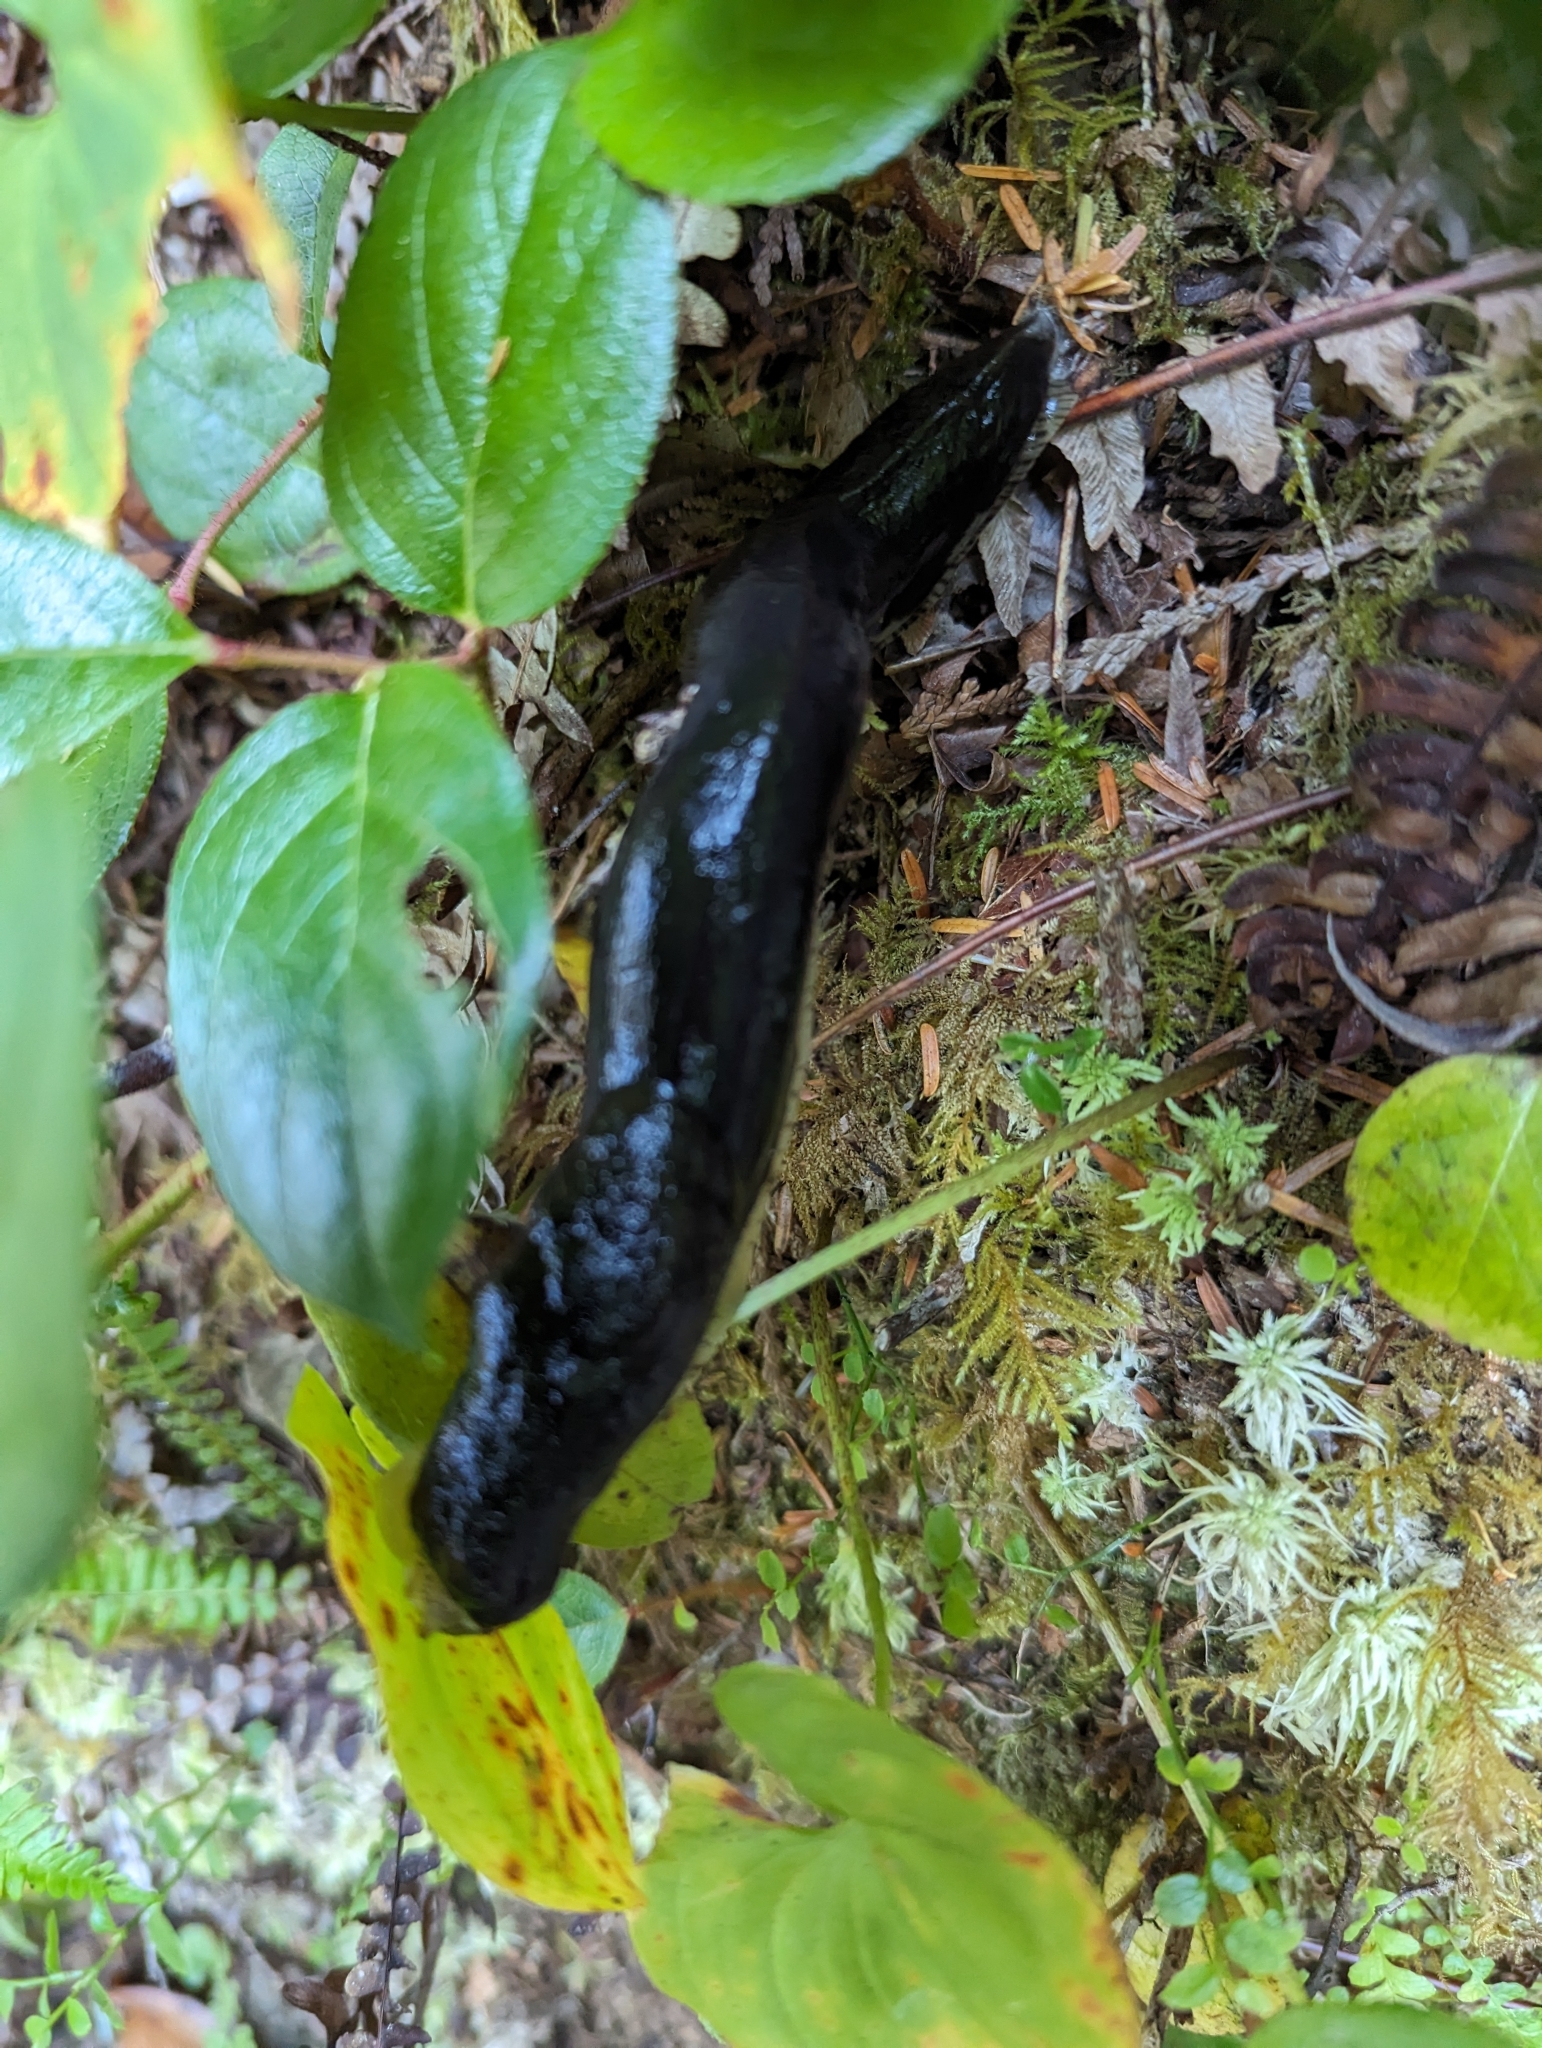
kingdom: Animalia
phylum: Mollusca
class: Gastropoda
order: Stylommatophora
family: Ariolimacidae
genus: Ariolimax
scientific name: Ariolimax columbianus
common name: Pacific banana slug
